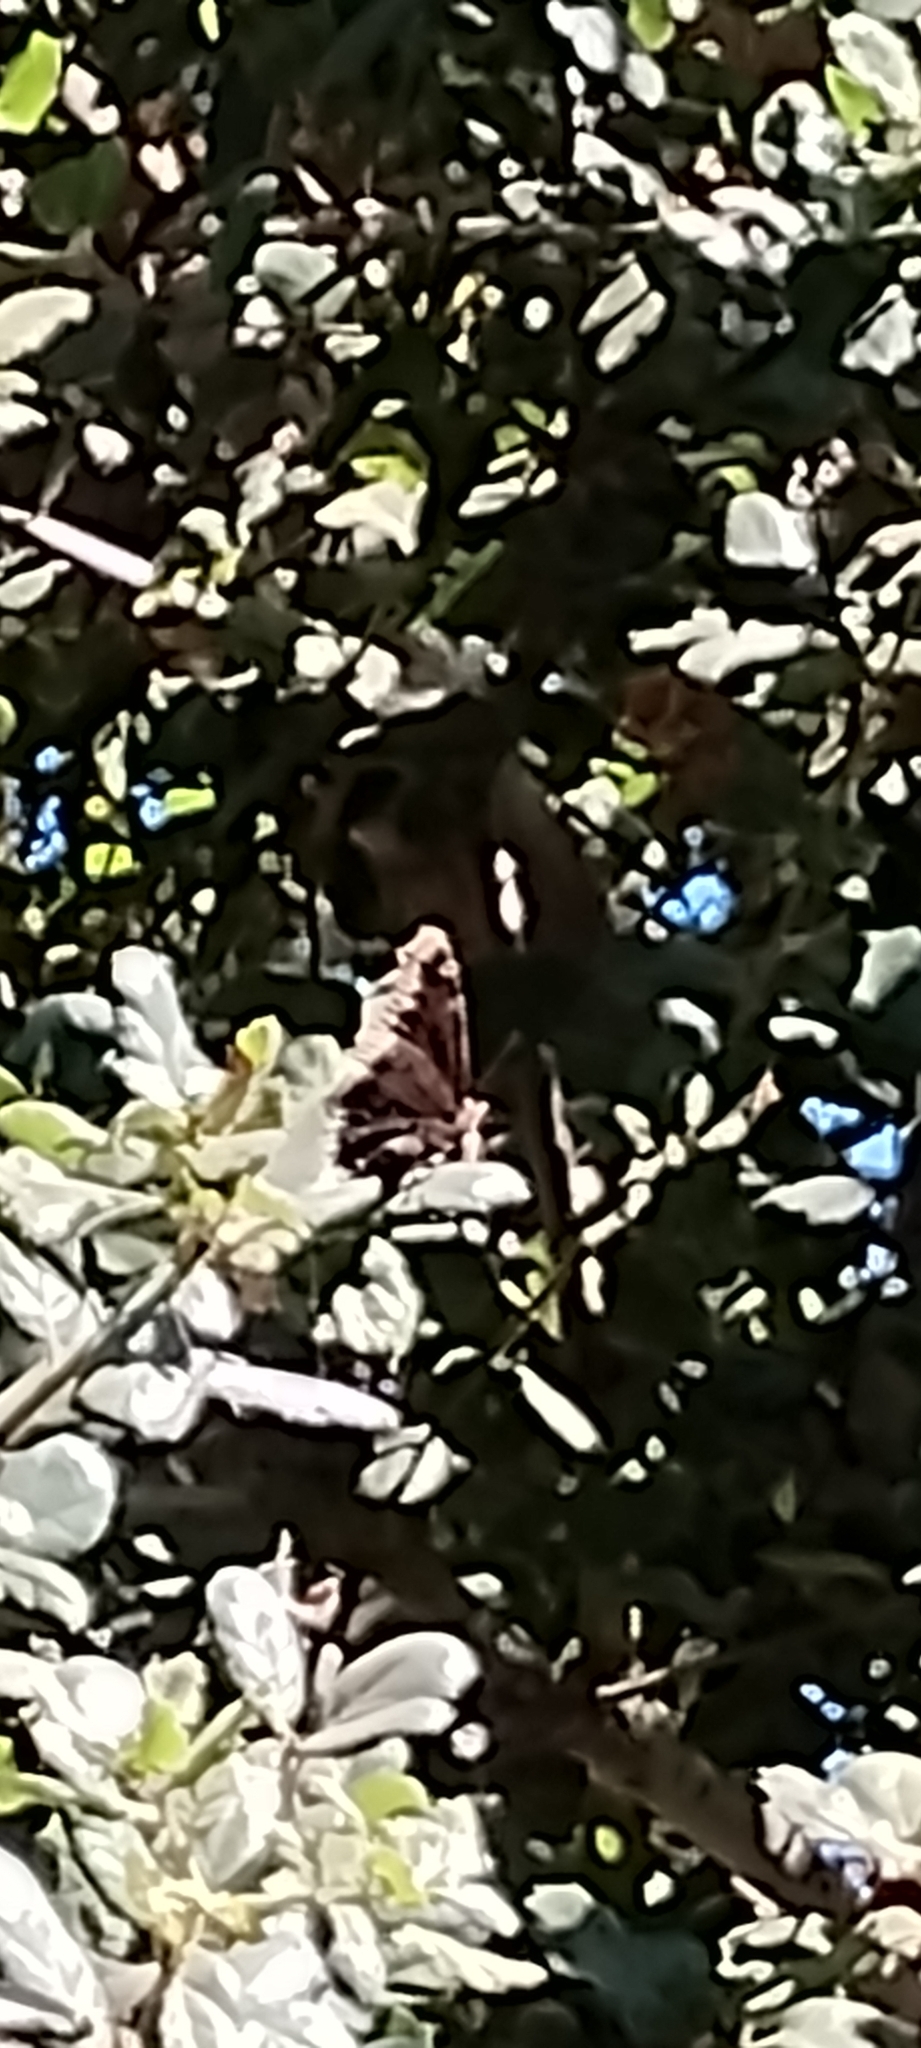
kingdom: Animalia
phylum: Arthropoda
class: Insecta
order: Lepidoptera
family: Nymphalidae
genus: Nymphalis
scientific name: Nymphalis antiopa
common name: Camberwell beauty
